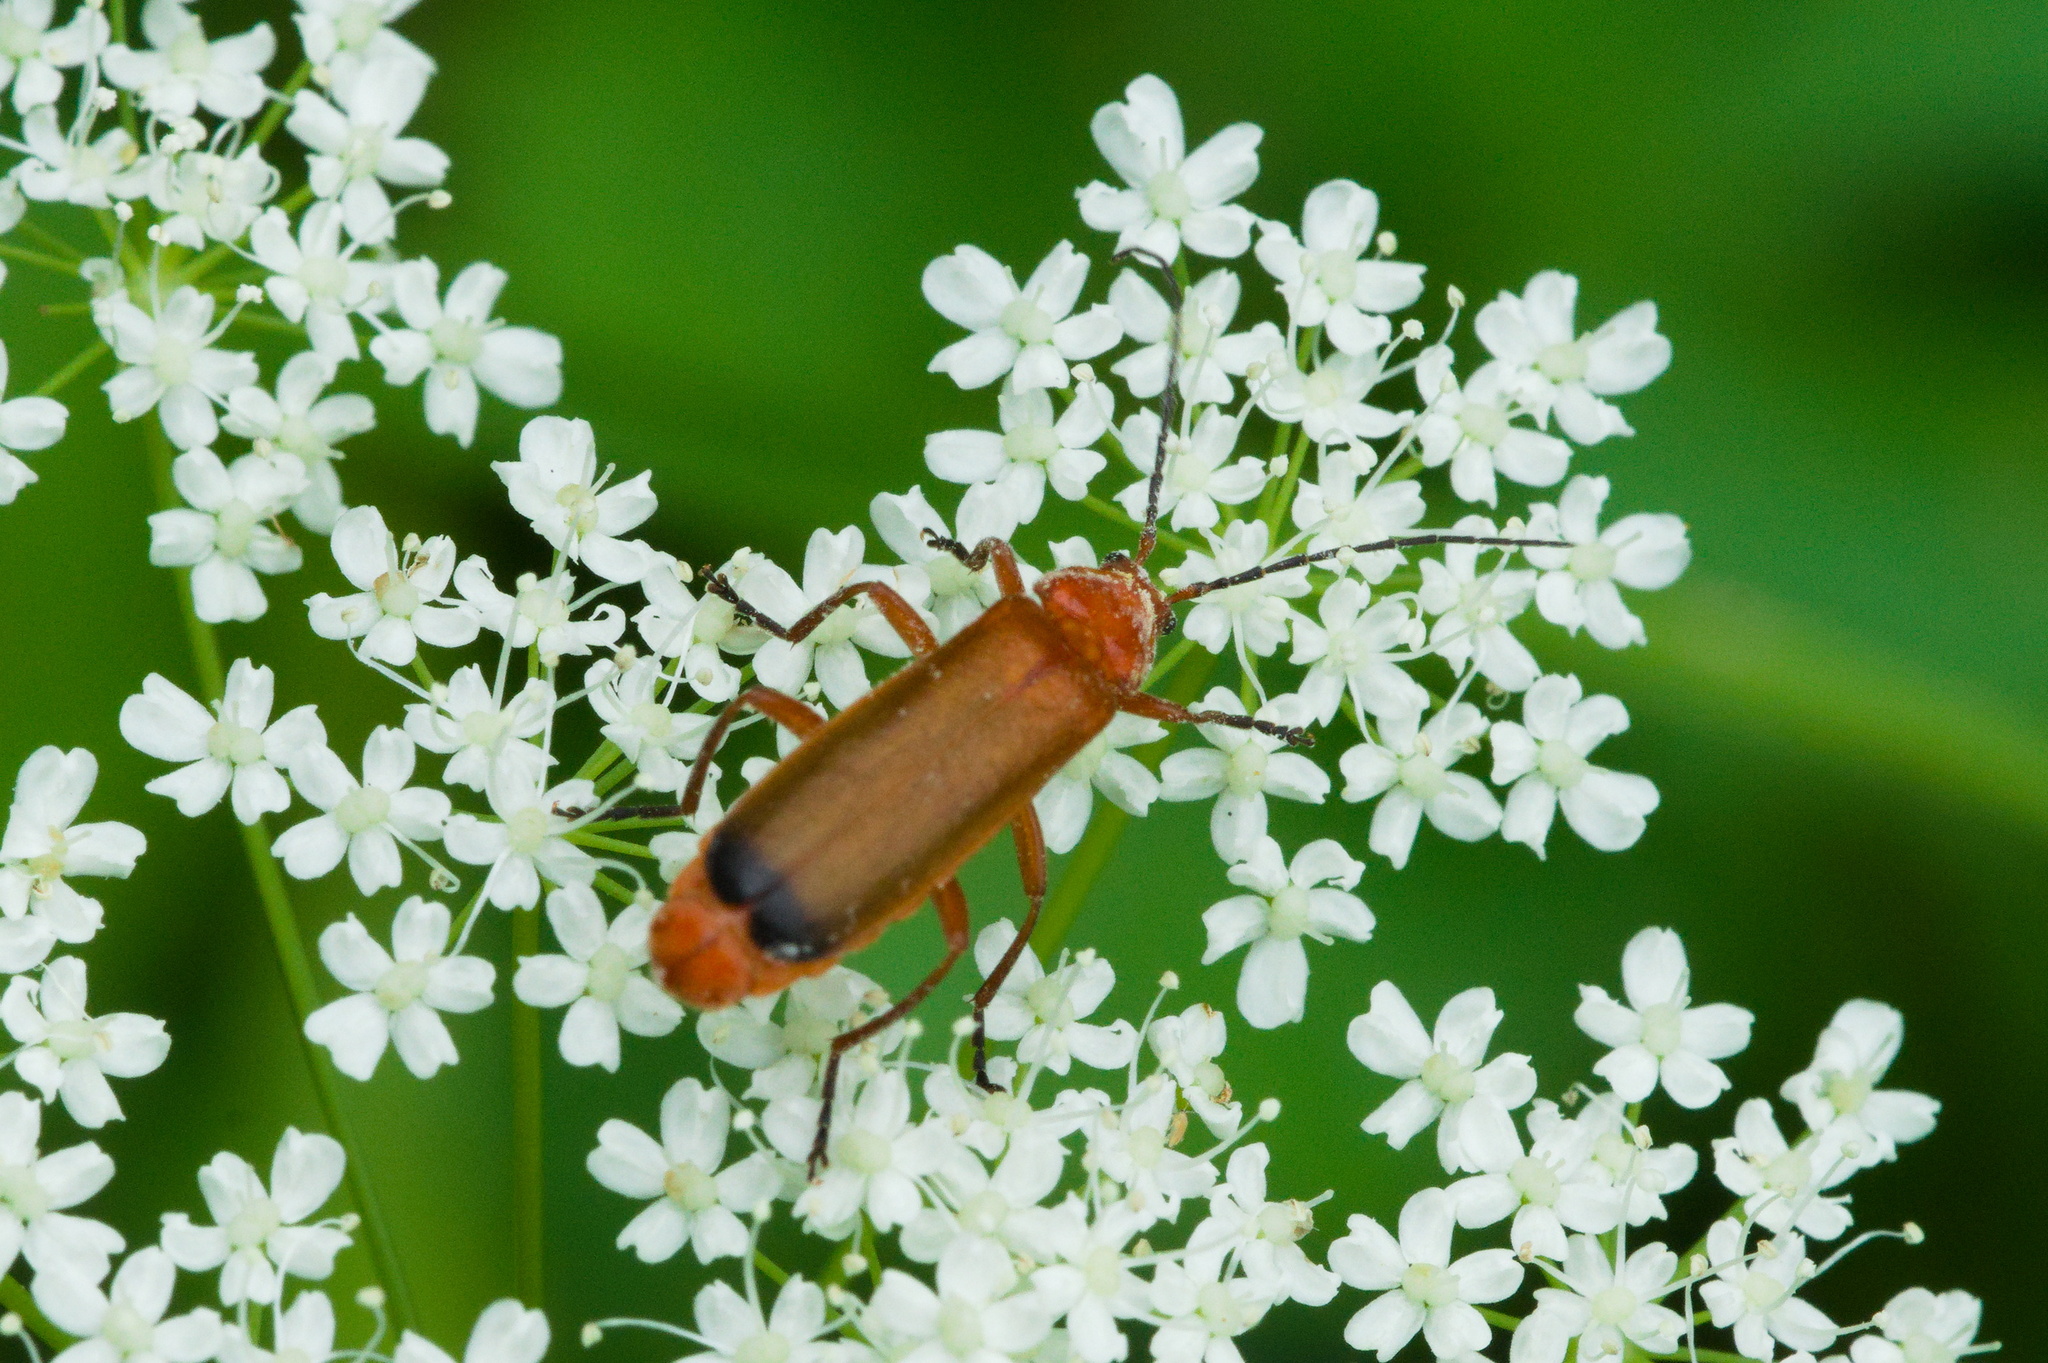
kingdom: Animalia
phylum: Arthropoda
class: Insecta
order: Coleoptera
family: Cantharidae
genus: Rhagonycha
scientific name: Rhagonycha fulva
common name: Common red soldier beetle
